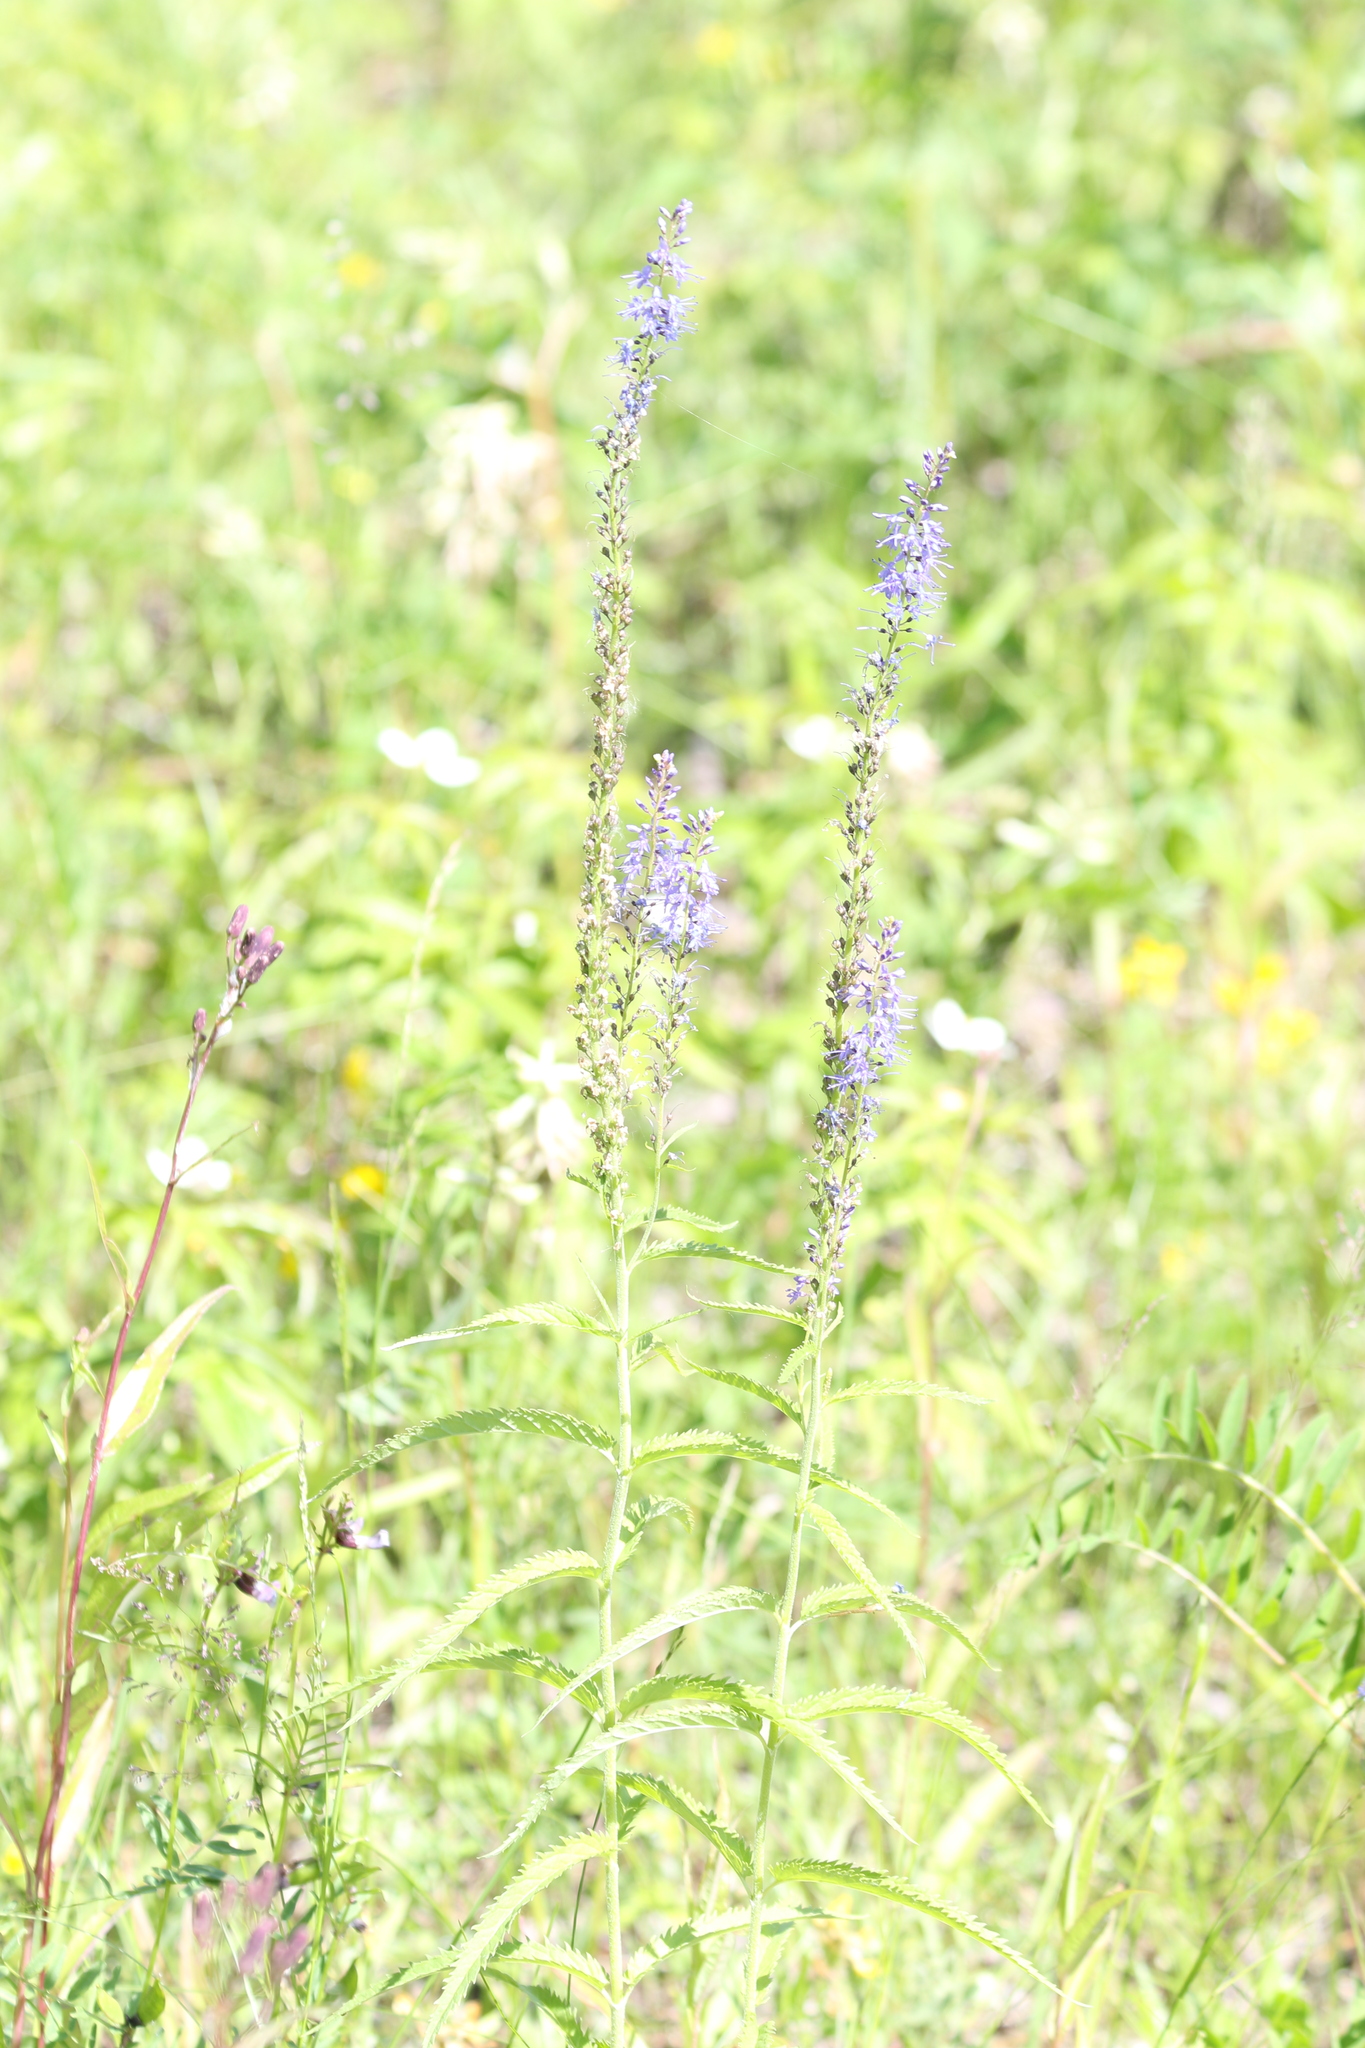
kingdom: Plantae
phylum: Tracheophyta
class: Magnoliopsida
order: Lamiales
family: Plantaginaceae
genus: Veronica
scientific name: Veronica longifolia
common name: Garden speedwell
